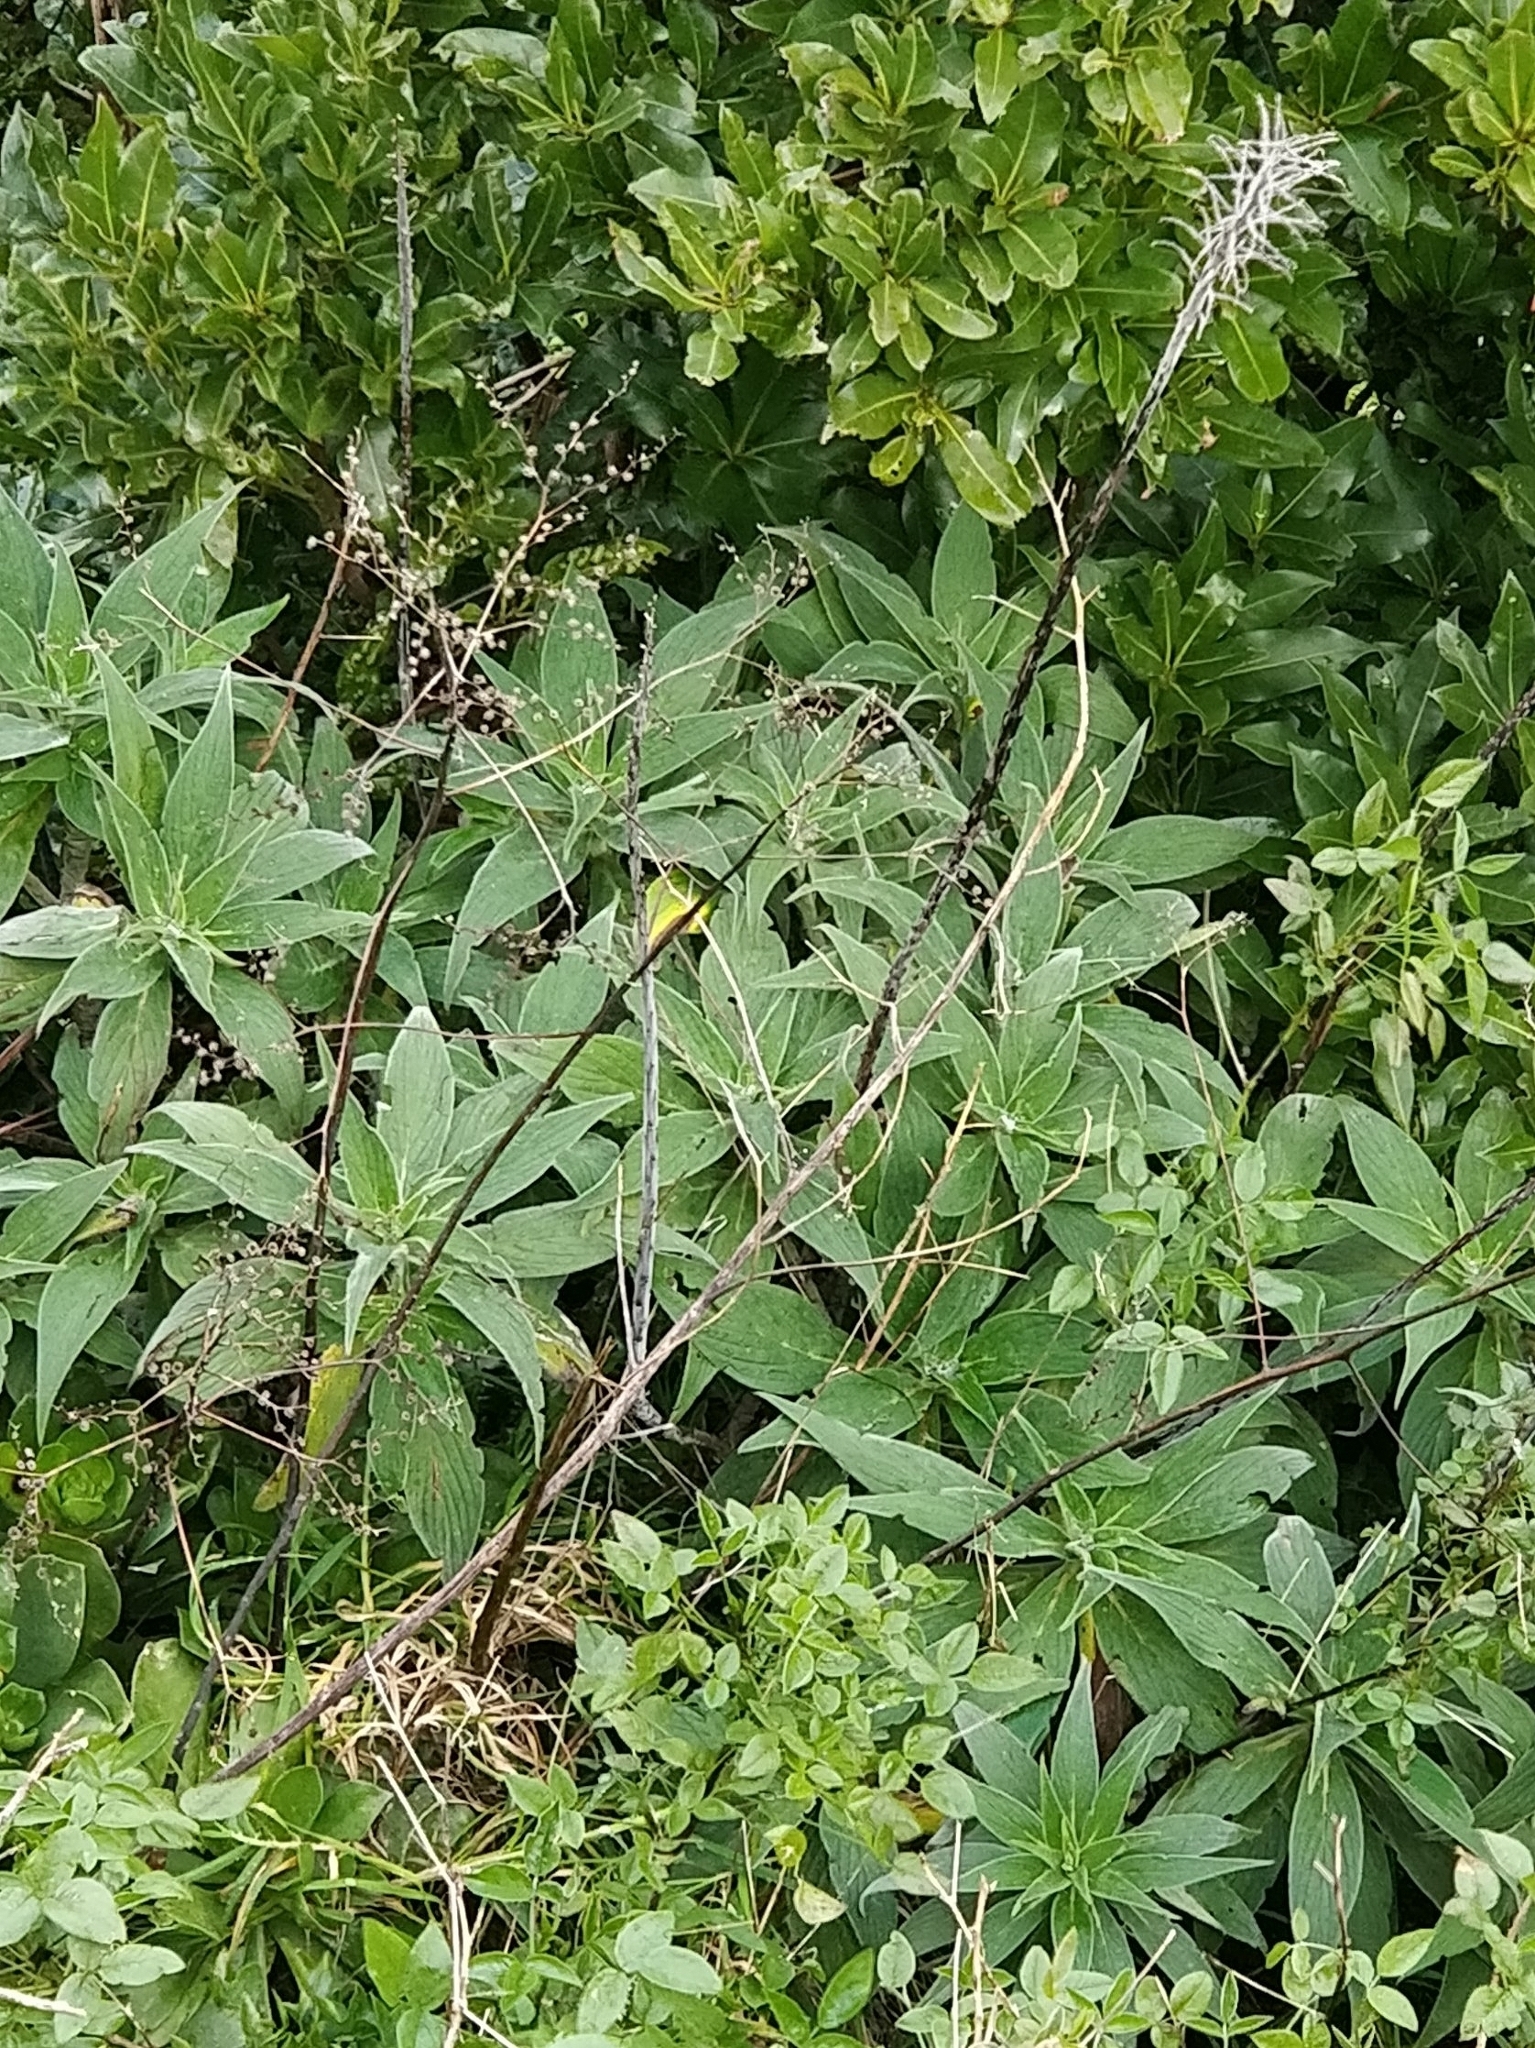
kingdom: Plantae
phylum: Tracheophyta
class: Magnoliopsida
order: Boraginales
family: Boraginaceae
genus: Echium
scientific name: Echium candicans
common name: Pride of madeira
